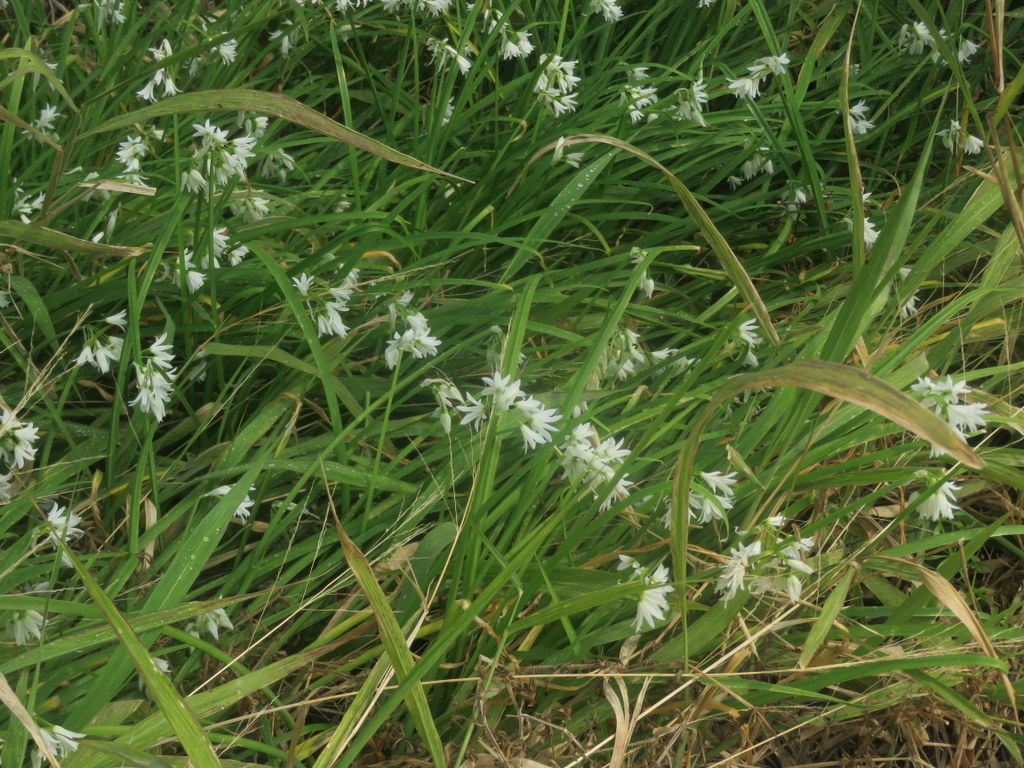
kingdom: Plantae
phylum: Tracheophyta
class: Liliopsida
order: Asparagales
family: Amaryllidaceae
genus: Allium
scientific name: Allium triquetrum
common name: Three-cornered garlic
